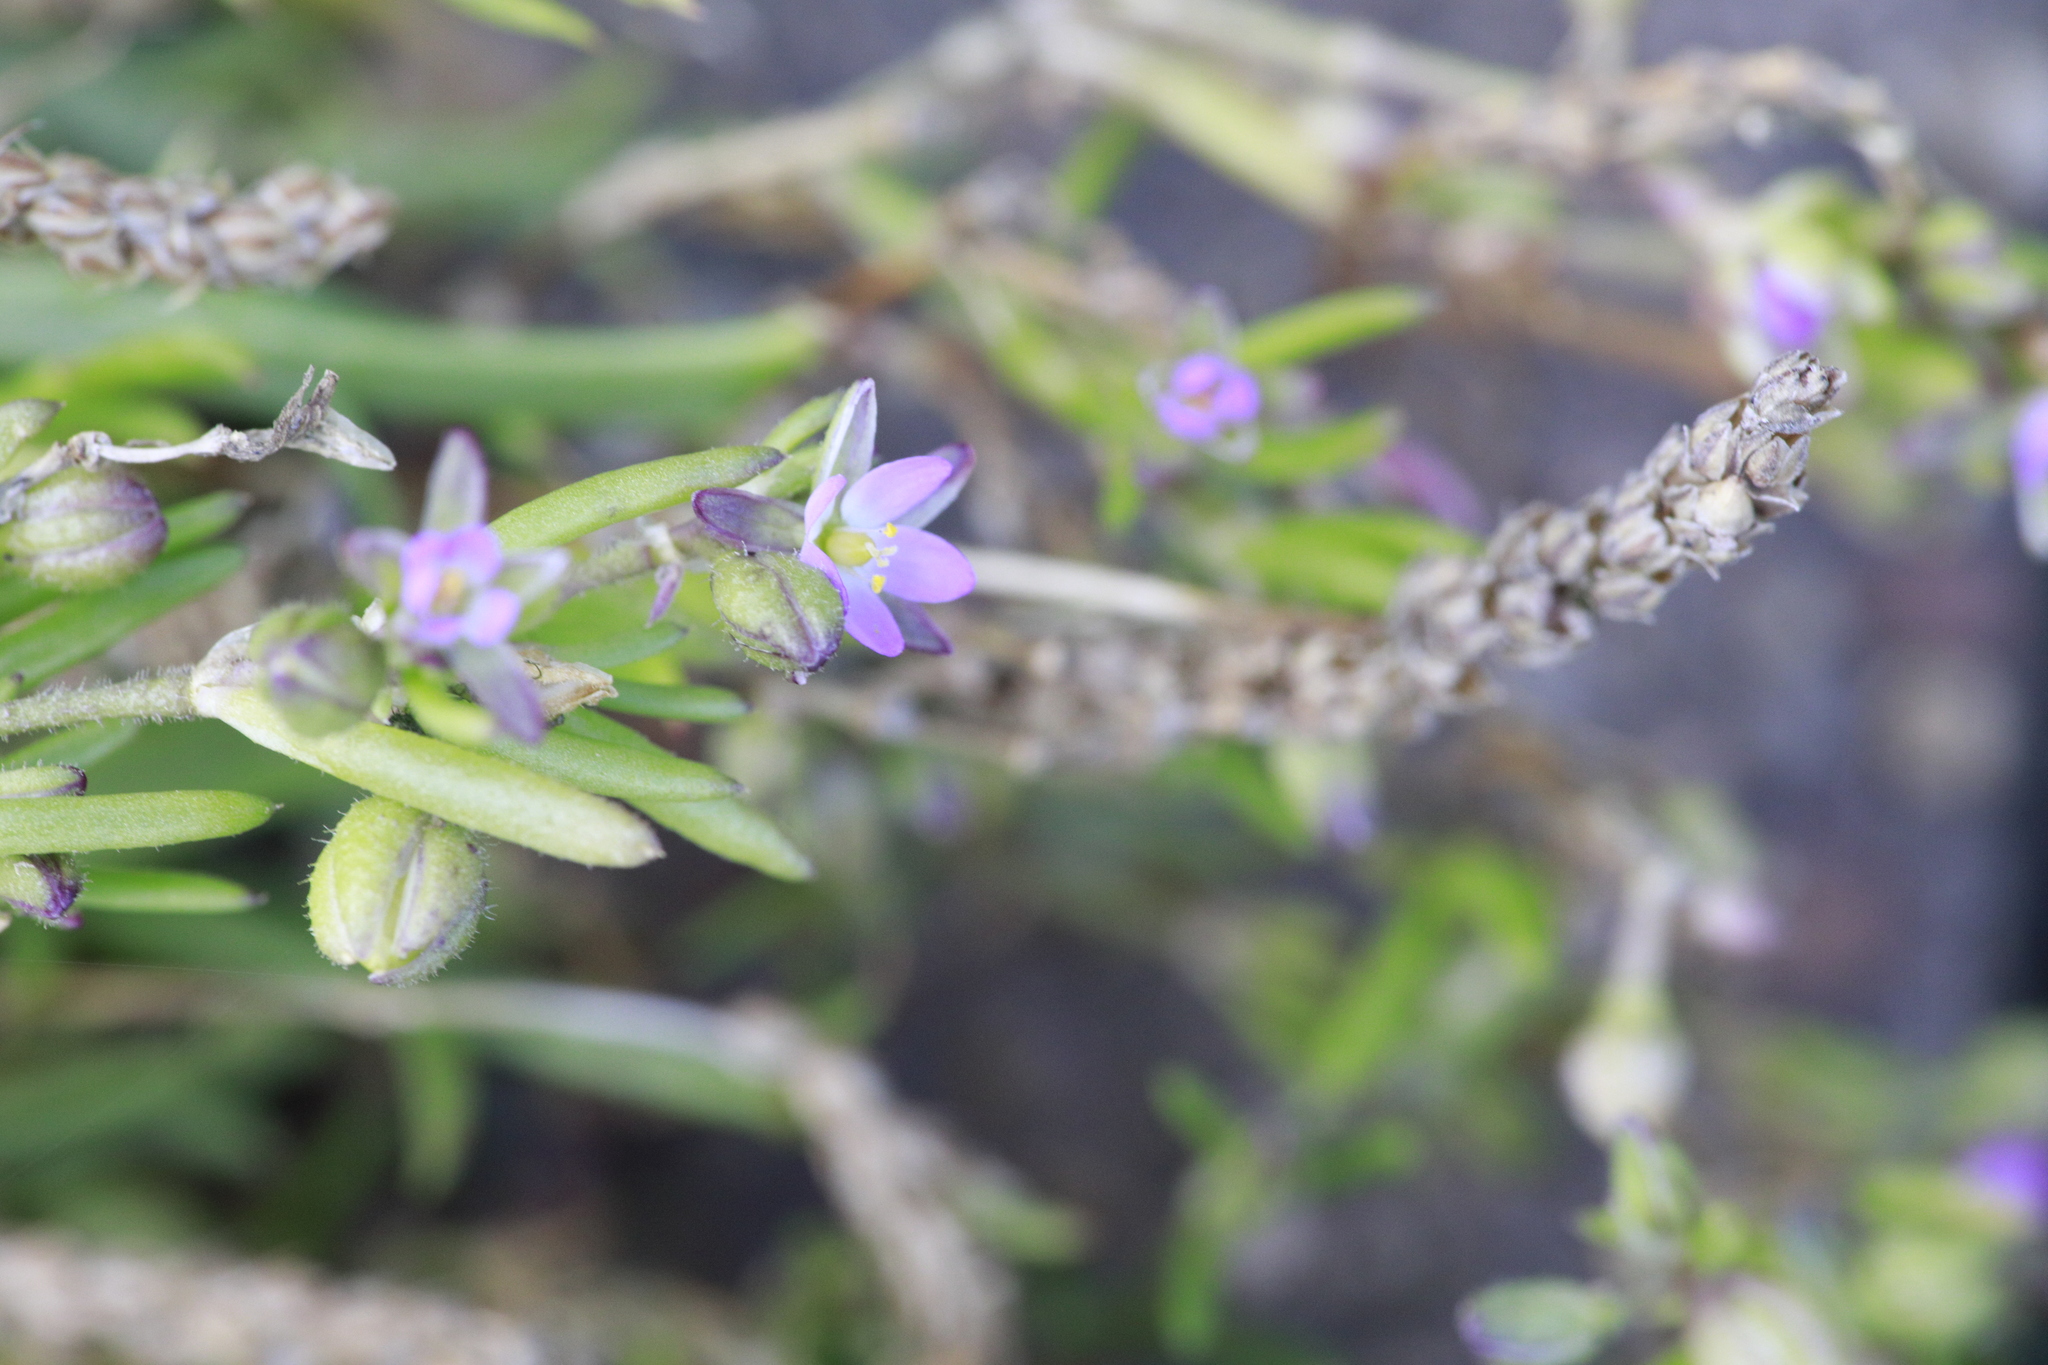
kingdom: Plantae
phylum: Tracheophyta
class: Magnoliopsida
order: Caryophyllales
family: Caryophyllaceae
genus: Spergularia
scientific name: Spergularia marina
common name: Lesser sea-spurrey
